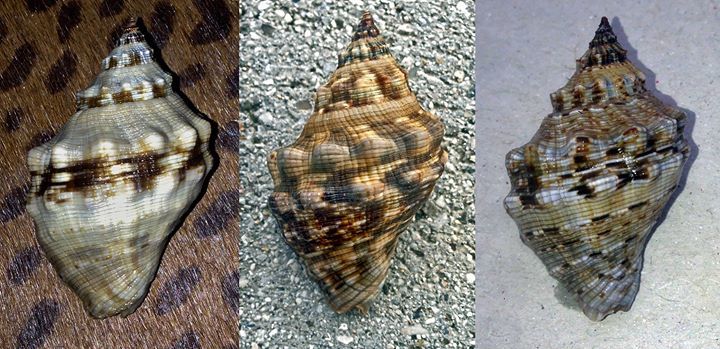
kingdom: Animalia
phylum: Mollusca
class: Gastropoda
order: Neogastropoda
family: Muricidae
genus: Stramonita
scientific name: Stramonita haemastoma
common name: Florida dog winkle
